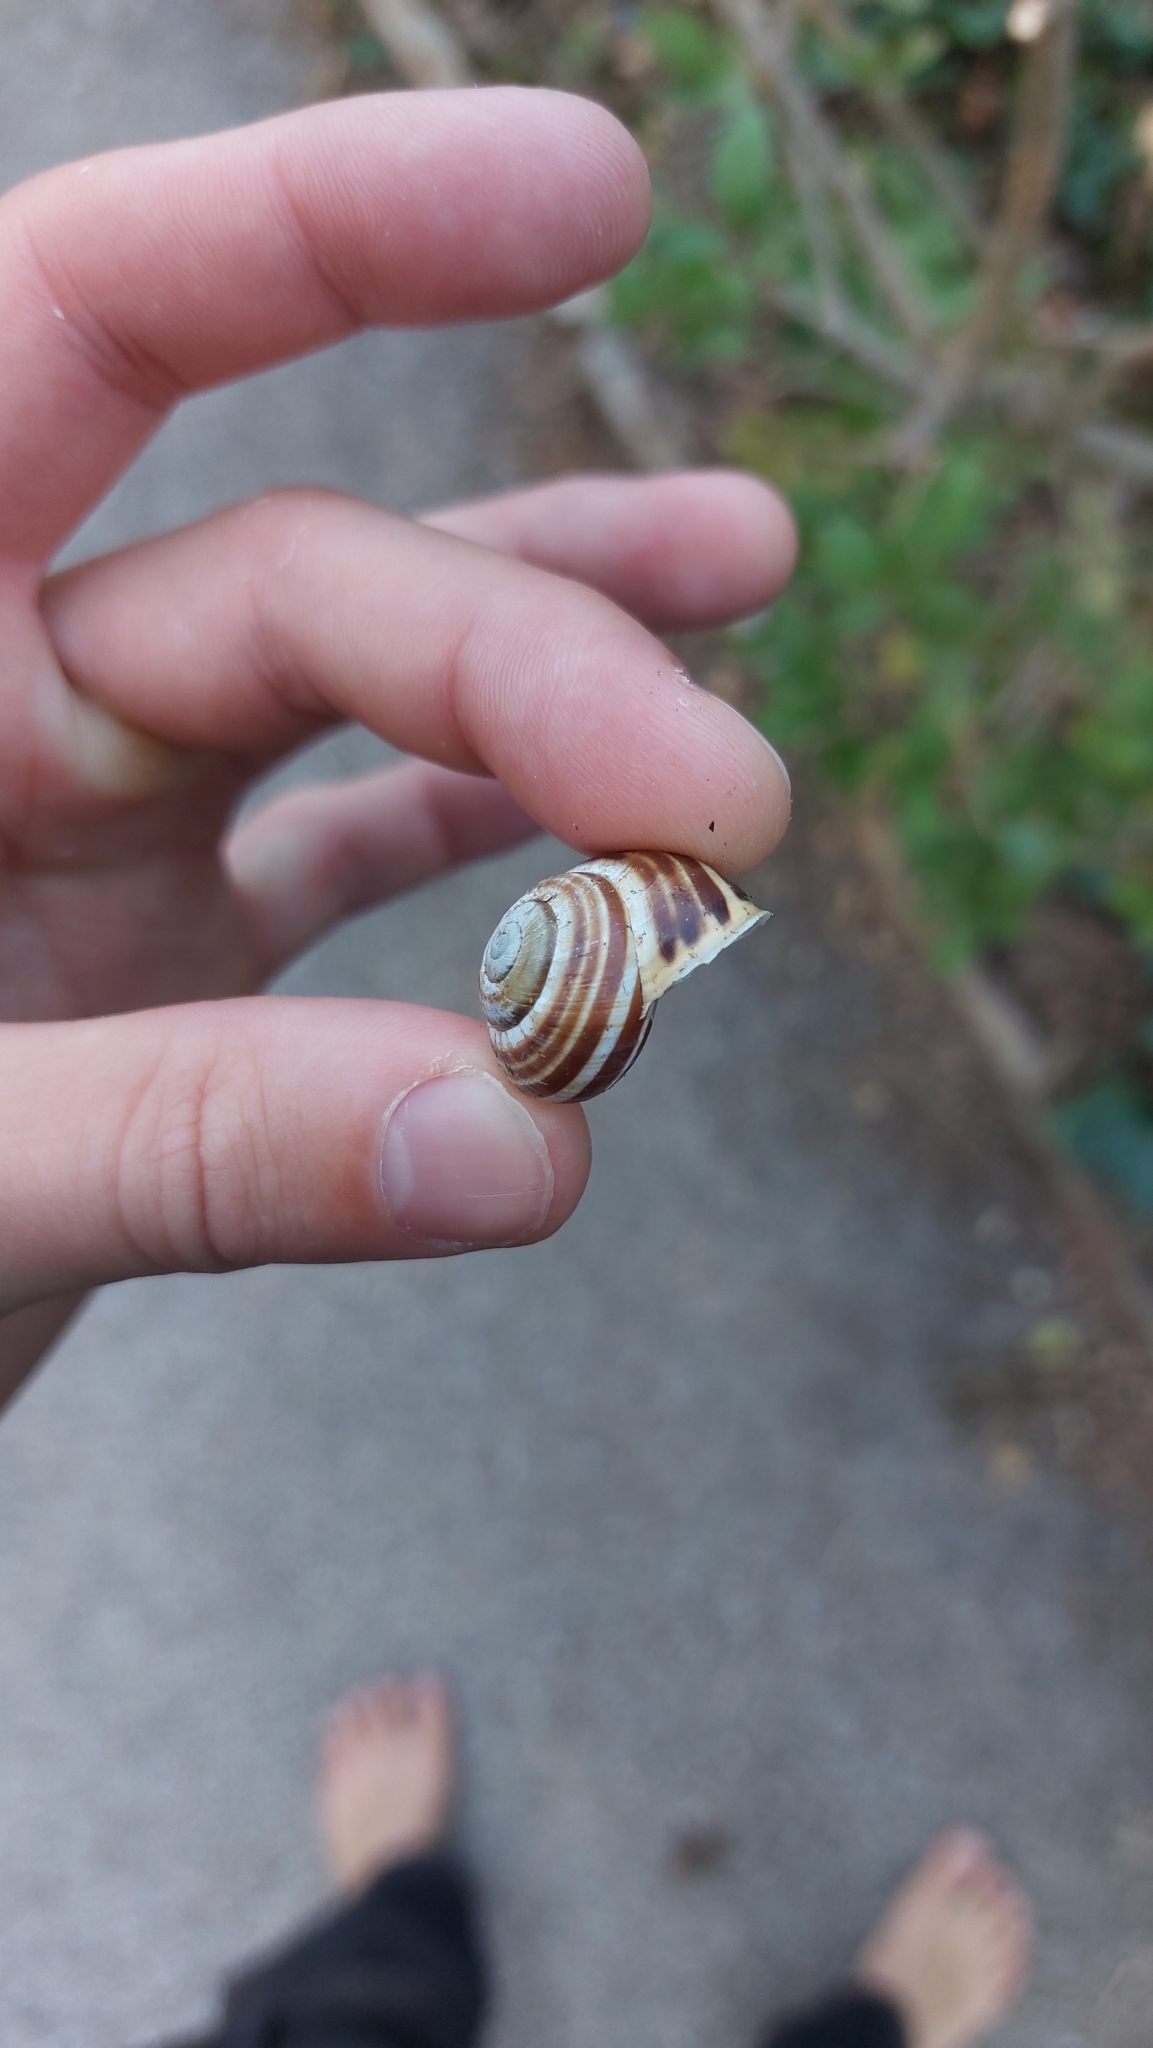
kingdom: Animalia
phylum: Mollusca
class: Gastropoda
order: Stylommatophora
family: Helicidae
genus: Cepaea
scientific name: Cepaea hortensis
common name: White-lip gardensnail
